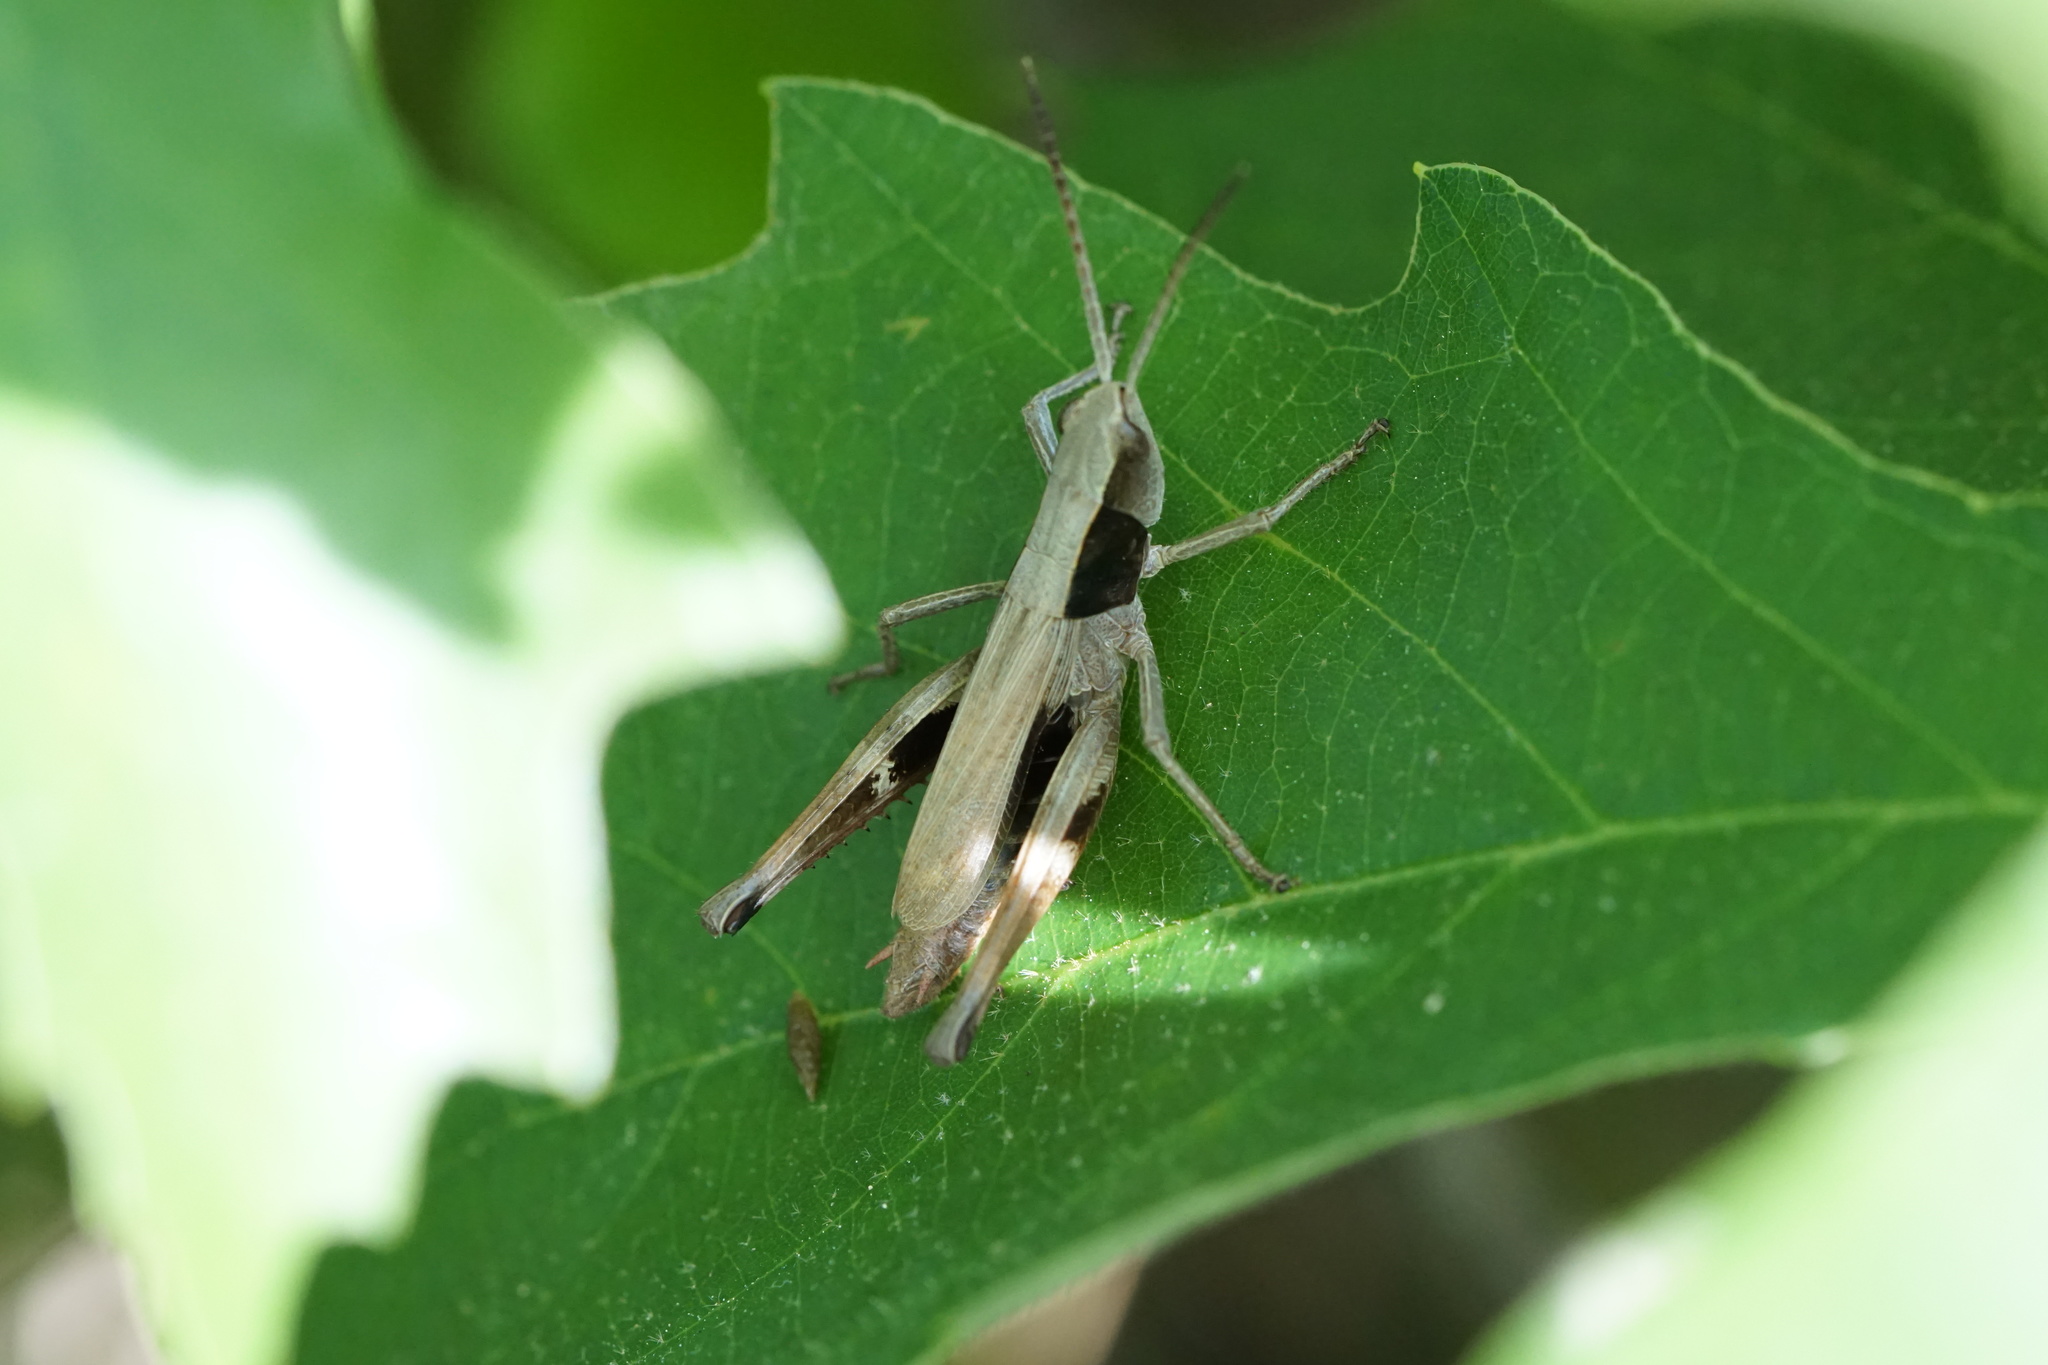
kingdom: Animalia
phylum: Arthropoda
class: Insecta
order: Orthoptera
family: Acrididae
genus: Chloealtis
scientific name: Chloealtis conspersa
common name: Sprinkled broad-winged grasshopper
